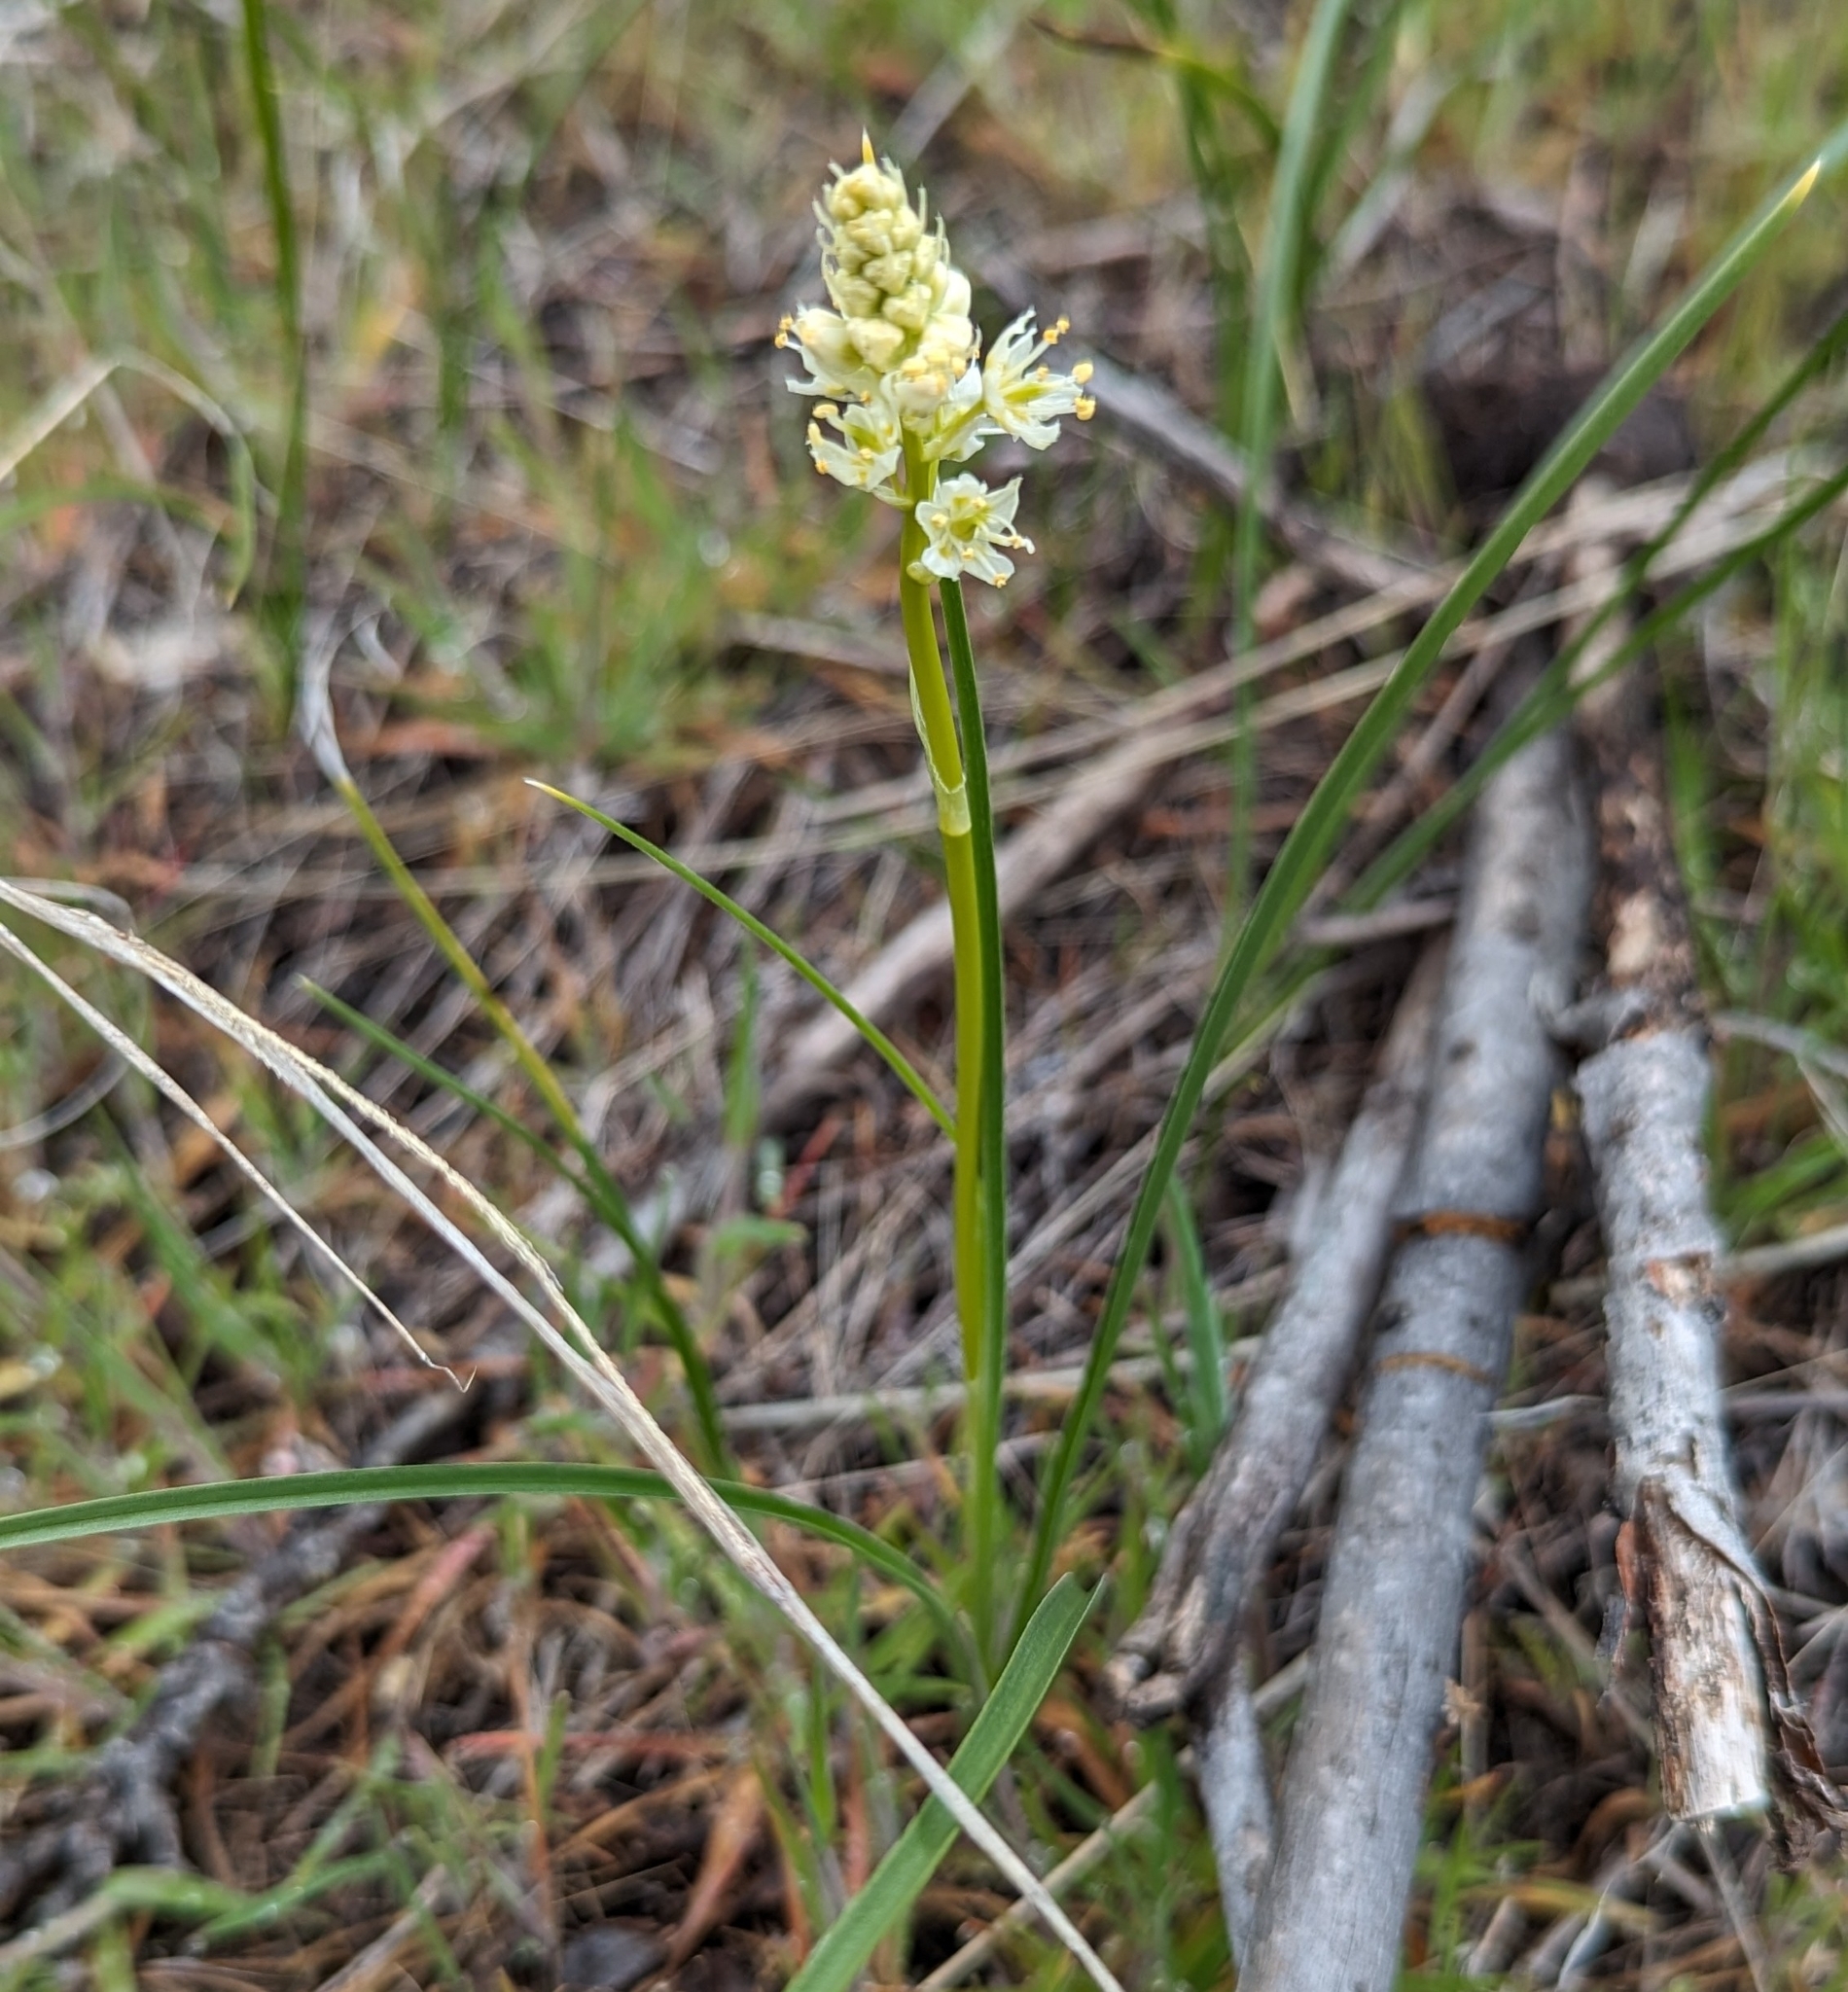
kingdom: Plantae
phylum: Tracheophyta
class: Liliopsida
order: Liliales
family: Melanthiaceae
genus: Toxicoscordion
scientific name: Toxicoscordion venenosum
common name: Meadow death camas
